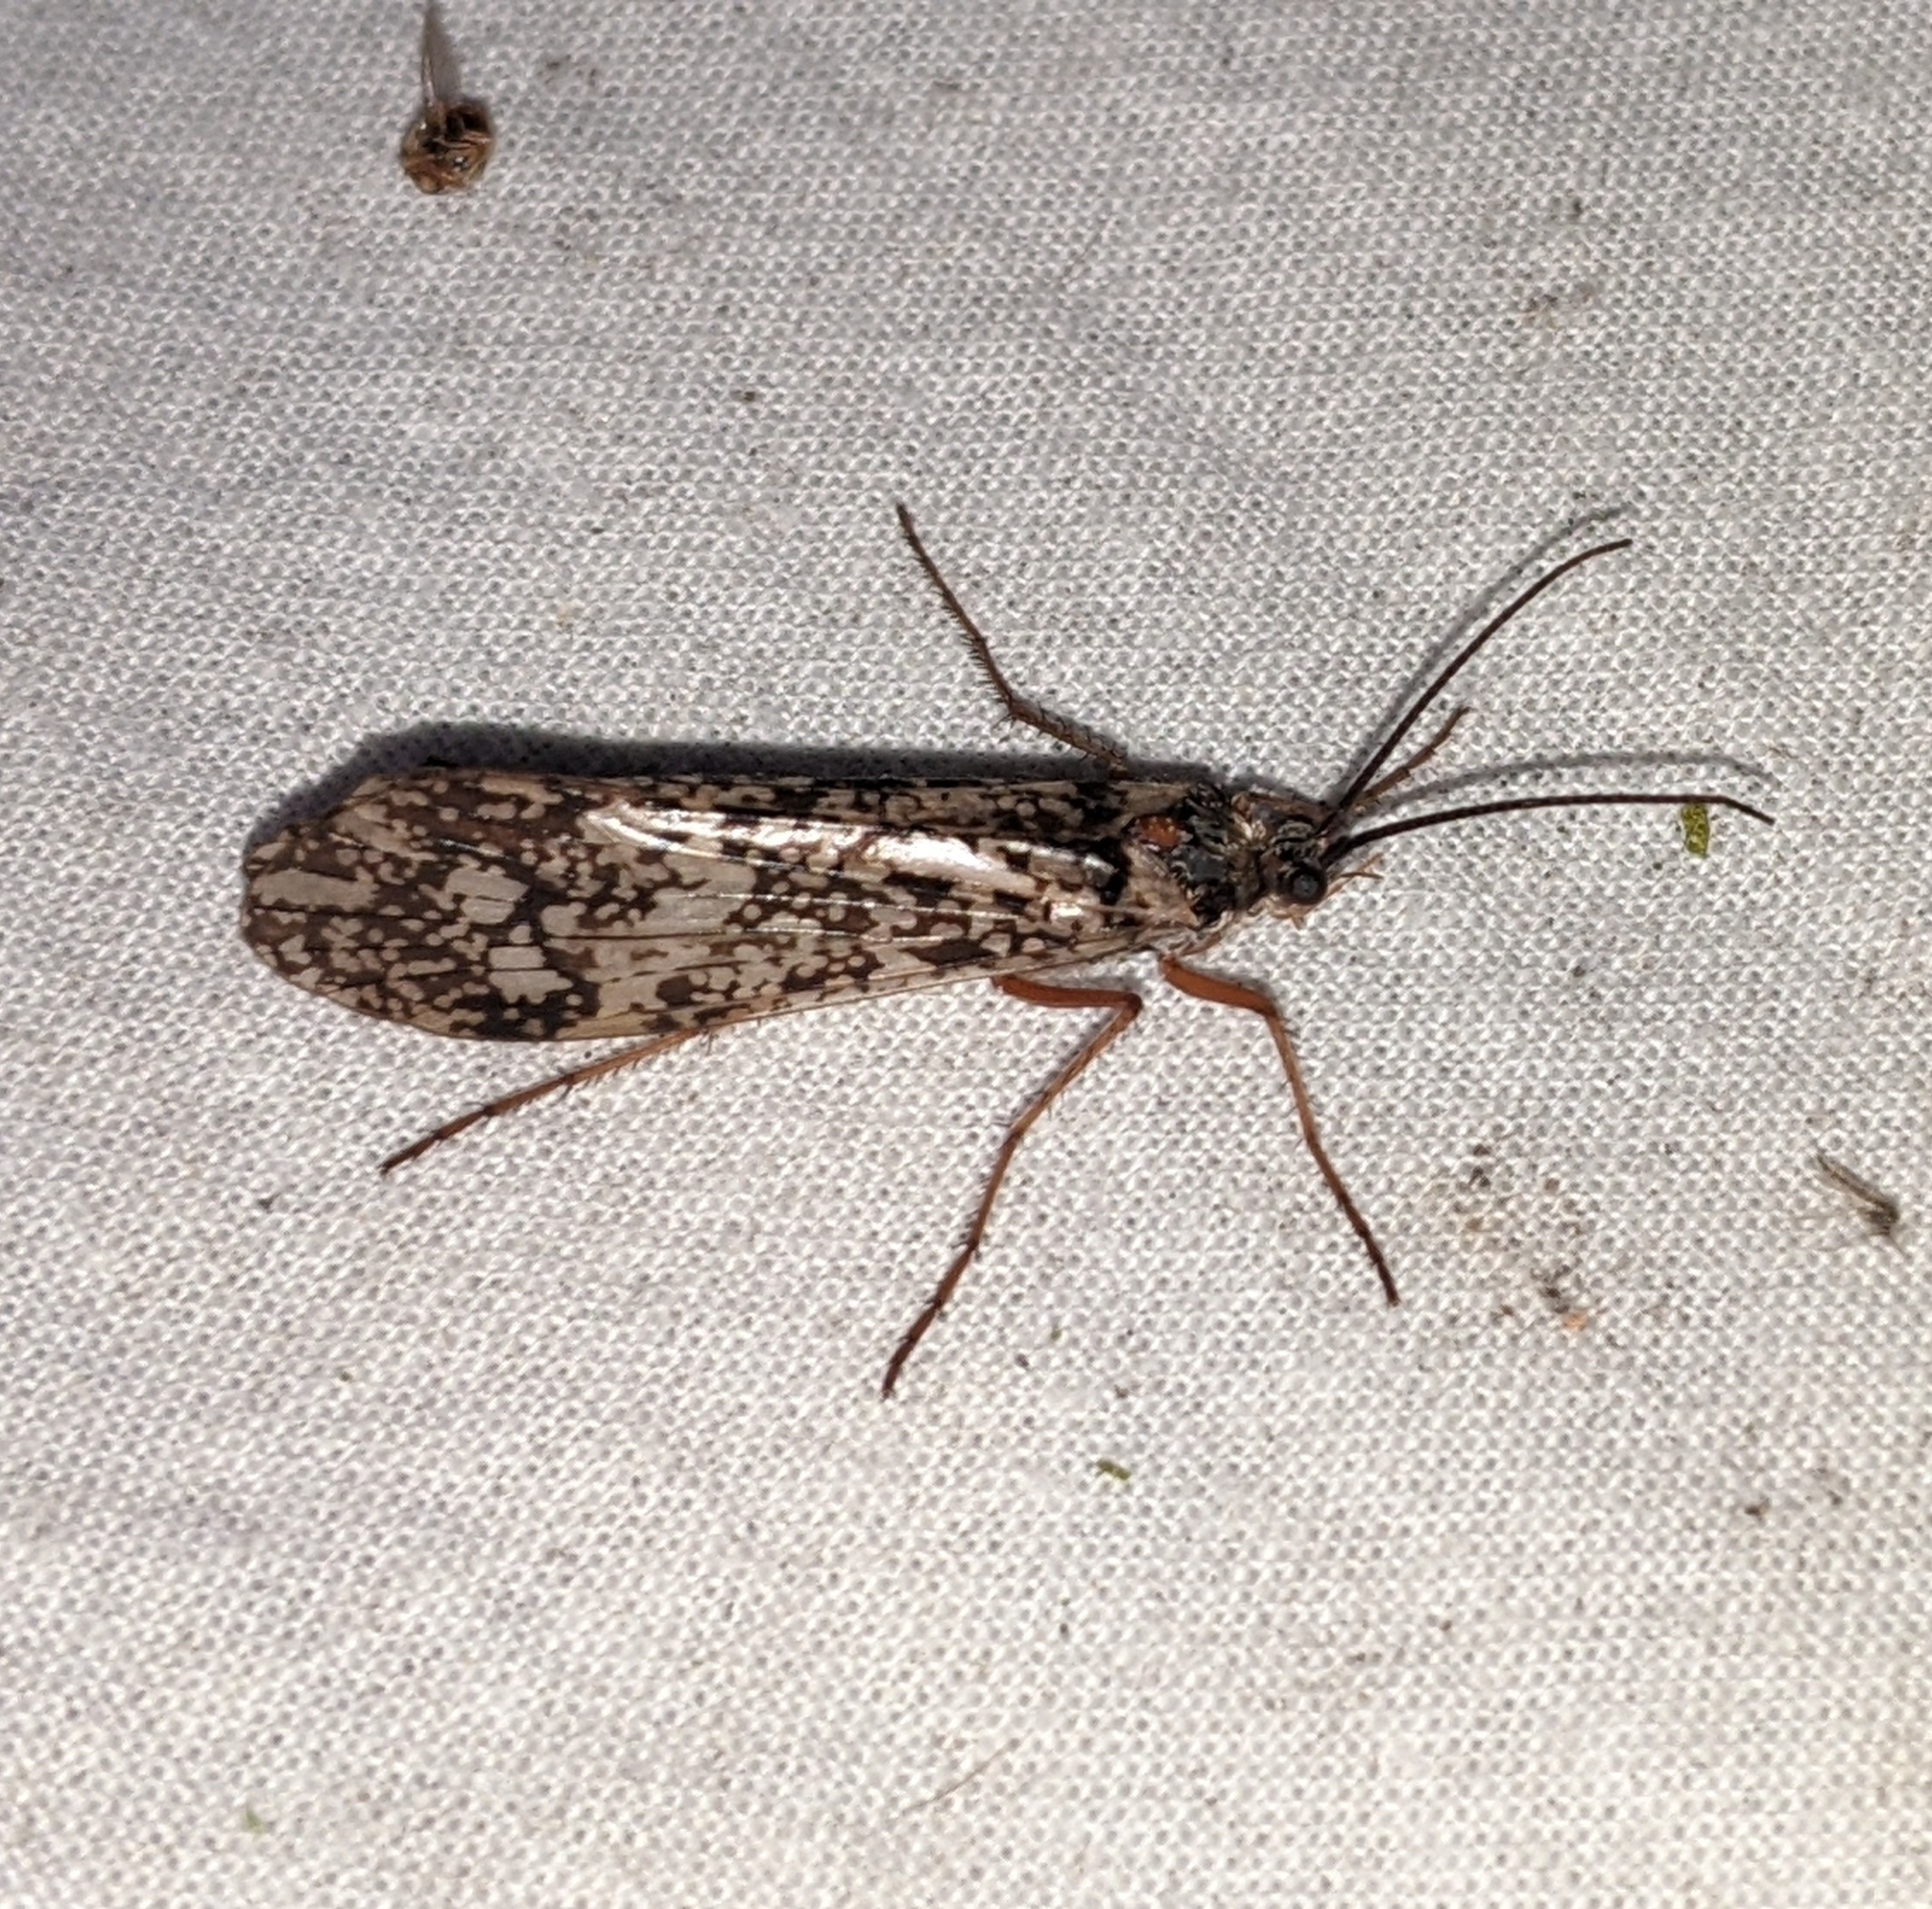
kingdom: Animalia
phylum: Arthropoda
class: Insecta
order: Trichoptera
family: Limnephilidae
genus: Clistoronia
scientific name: Clistoronia magnifica
